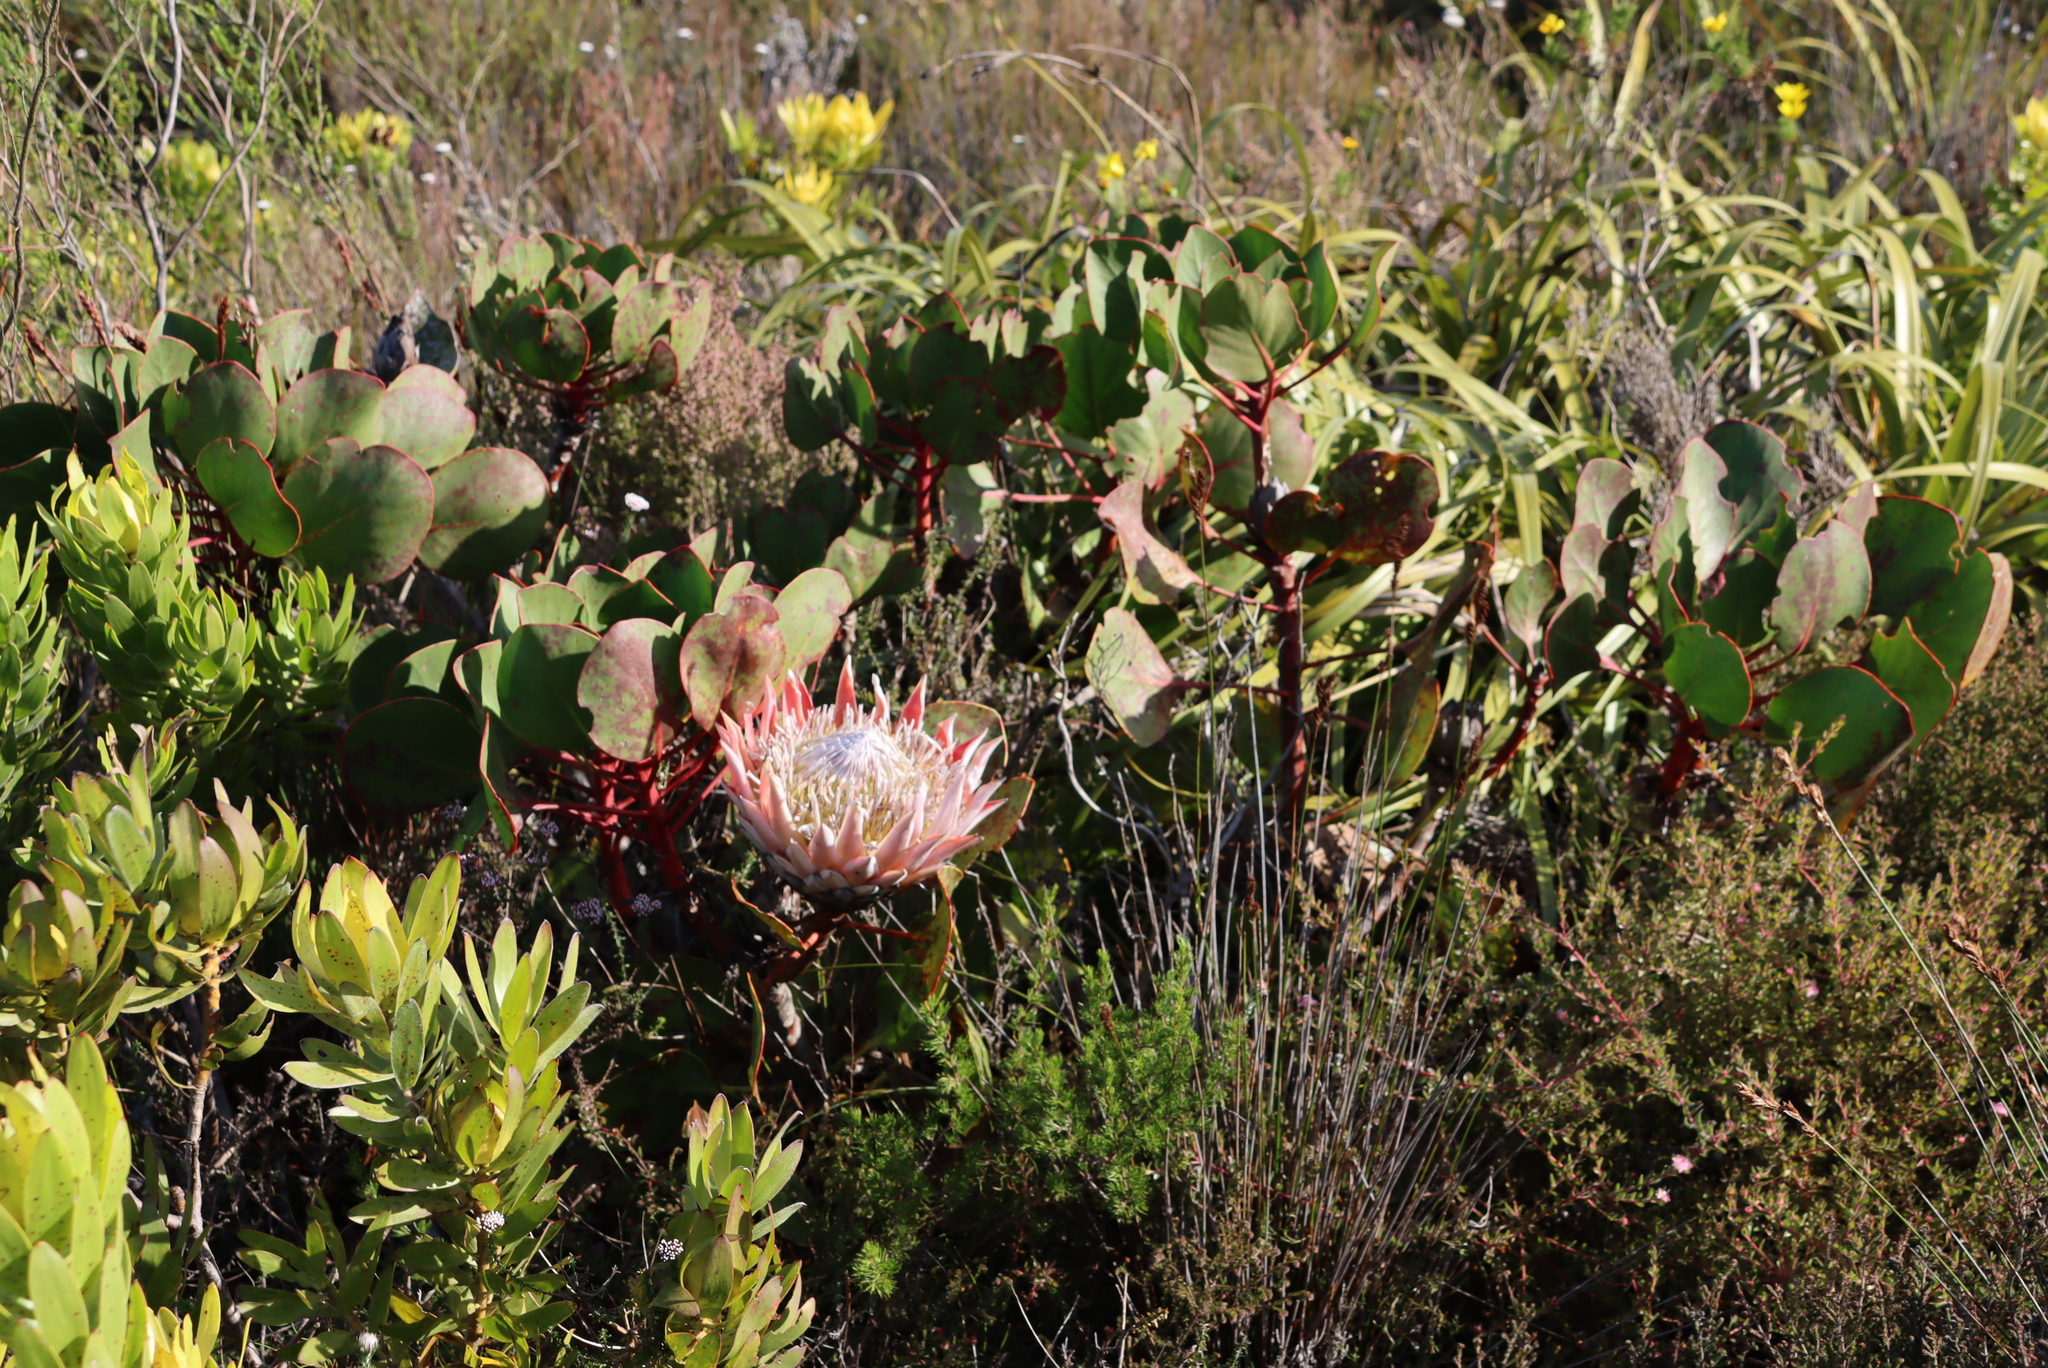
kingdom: Plantae
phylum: Tracheophyta
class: Magnoliopsida
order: Proteales
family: Proteaceae
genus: Protea
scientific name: Protea cynaroides
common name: King protea
